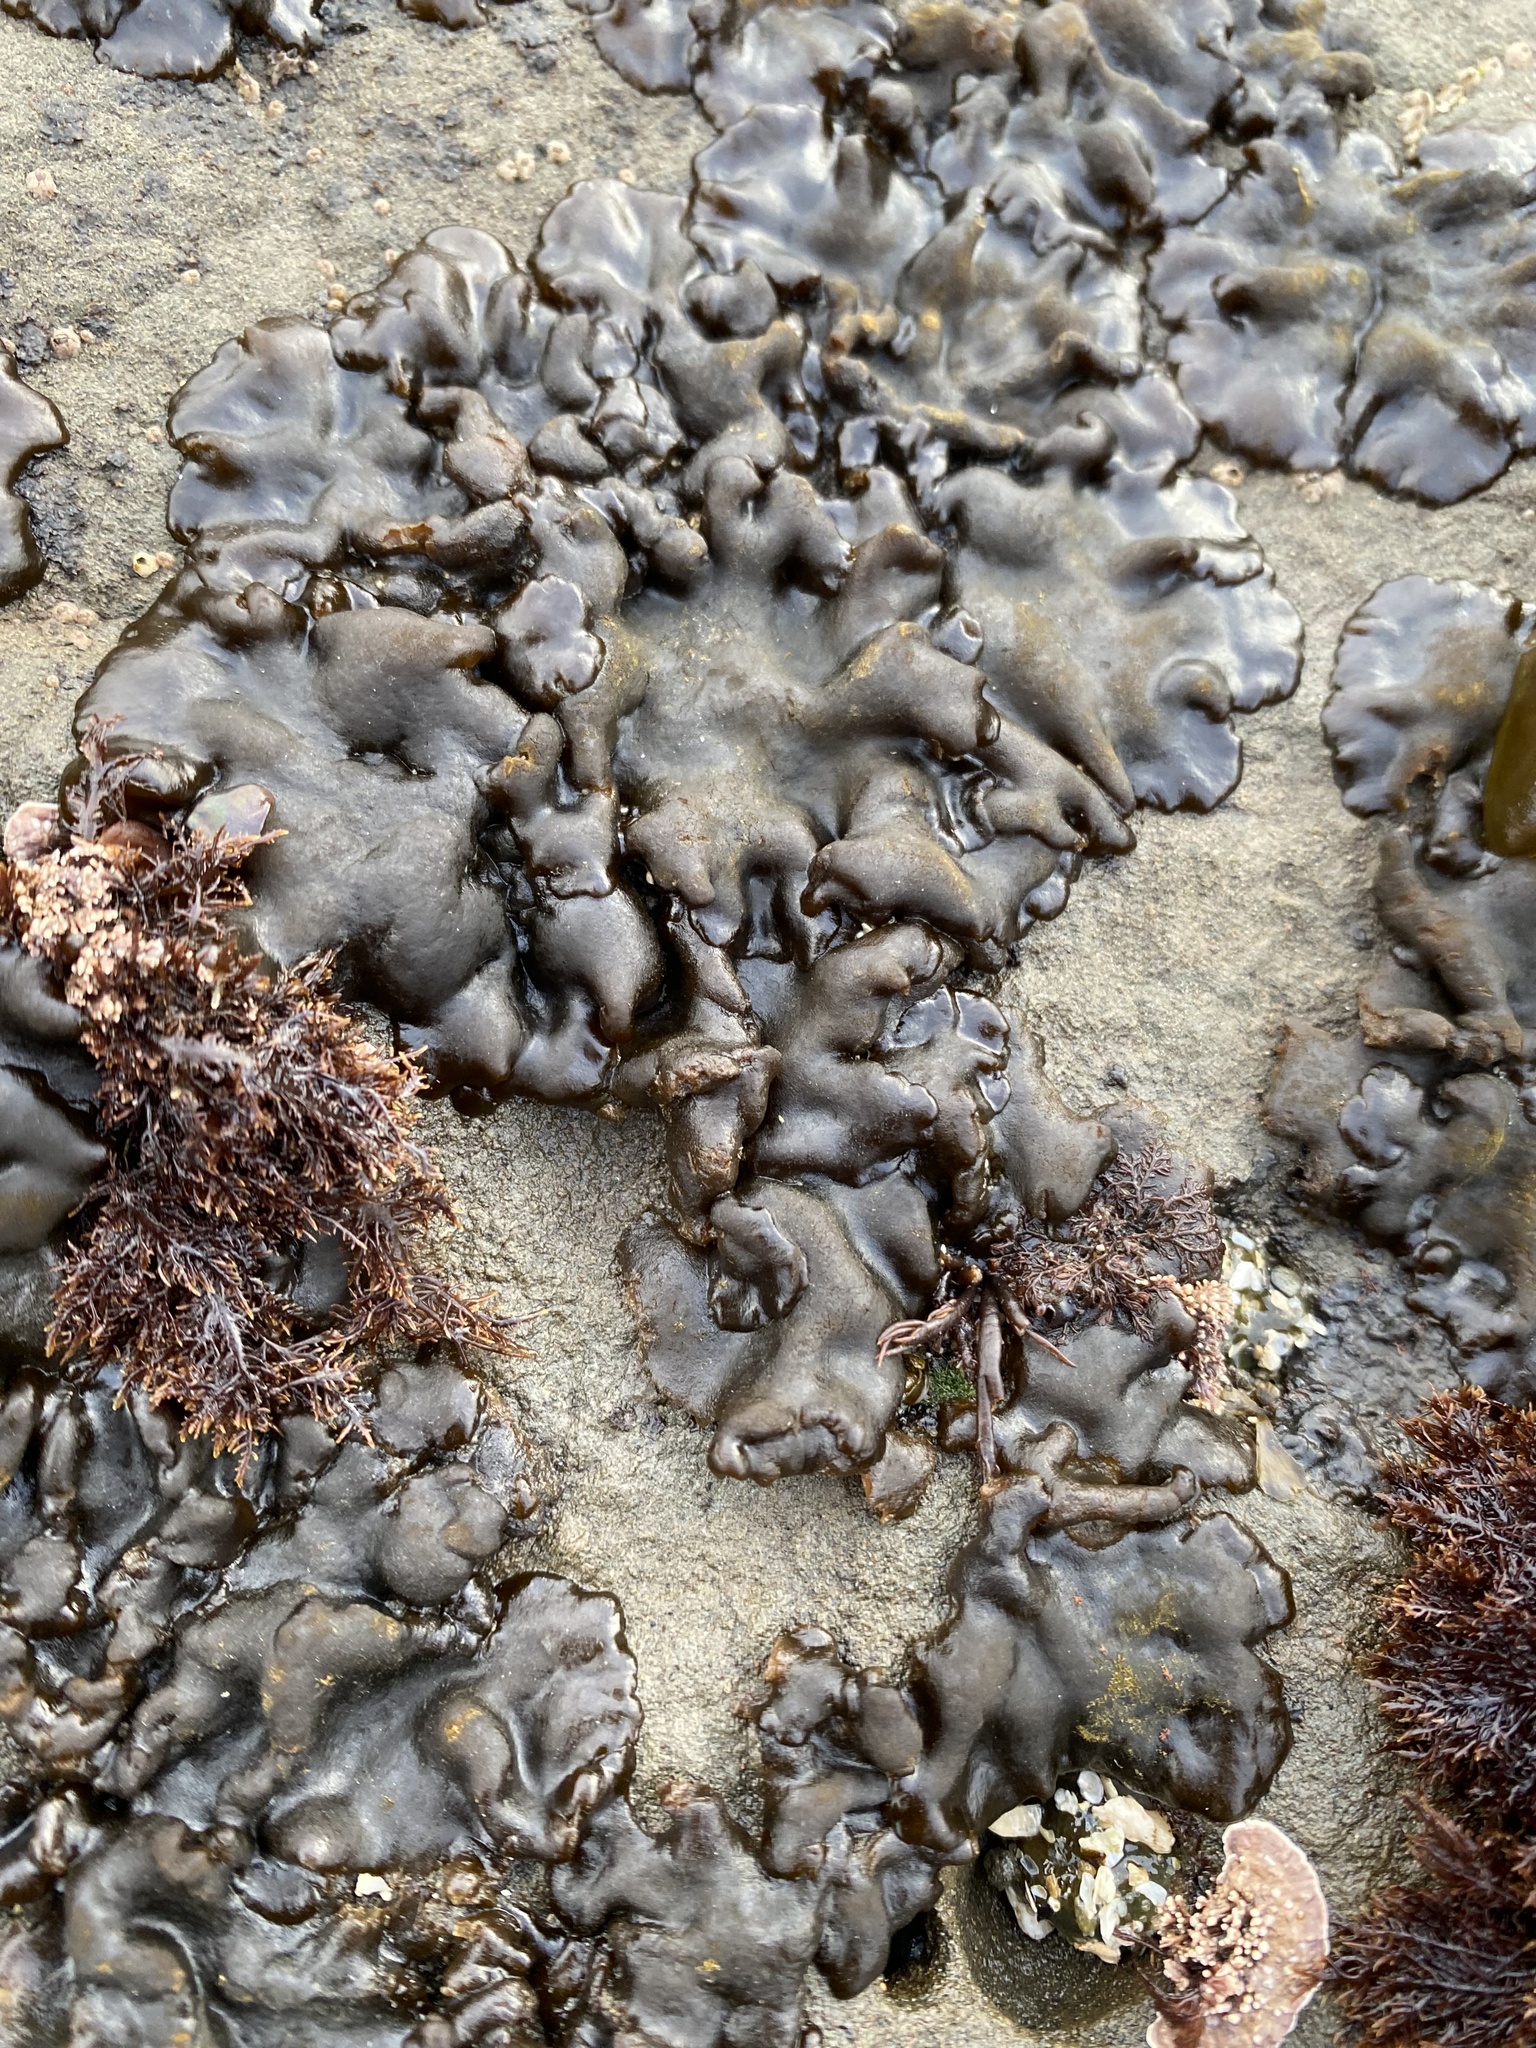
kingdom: Plantae
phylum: Chlorophyta
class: Ulvophyceae
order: Bryopsidales
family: Codiaceae
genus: Codium
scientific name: Codium setchellii
